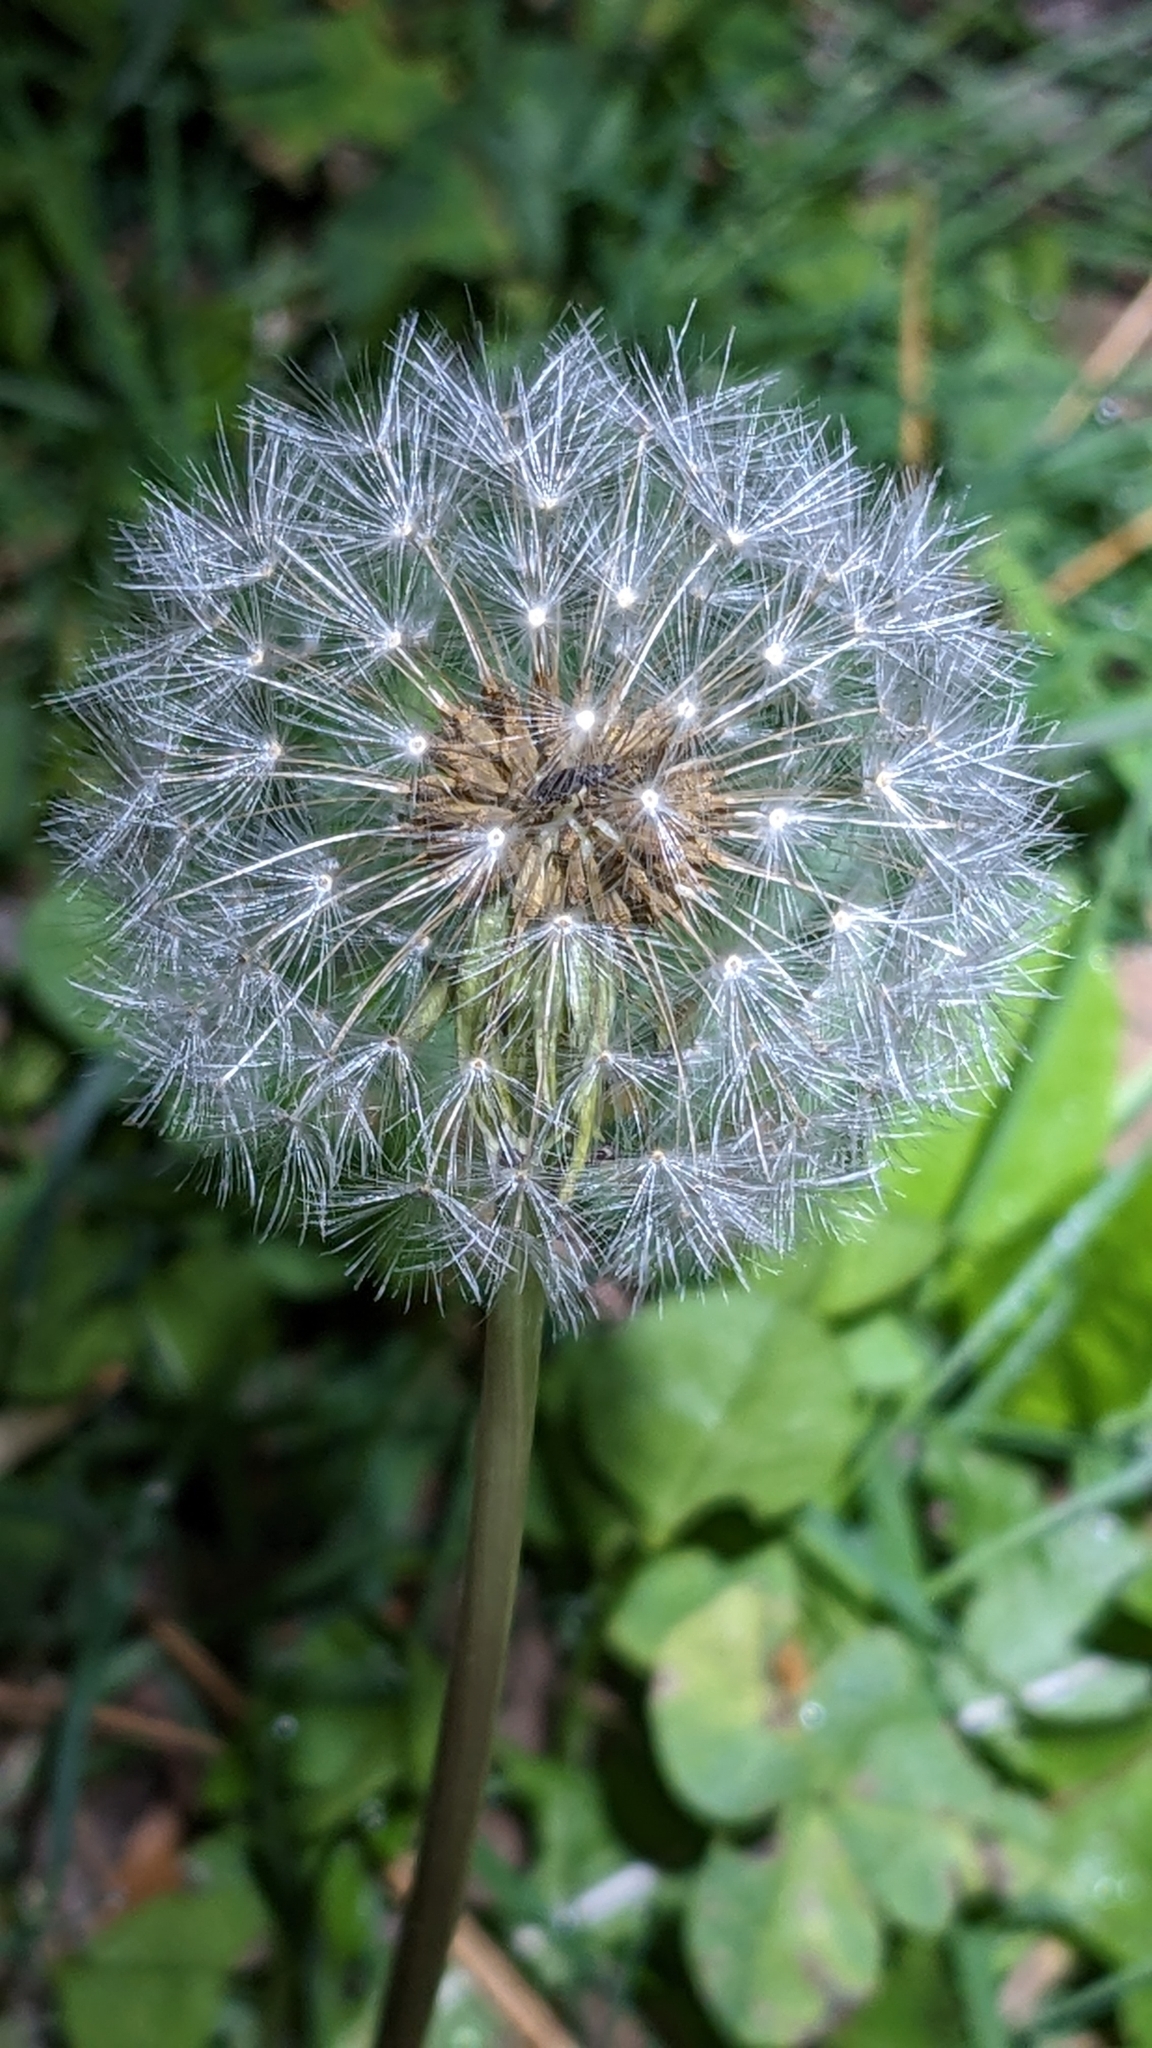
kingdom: Plantae
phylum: Tracheophyta
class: Magnoliopsida
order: Asterales
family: Asteraceae
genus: Taraxacum
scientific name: Taraxacum officinale
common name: Common dandelion
